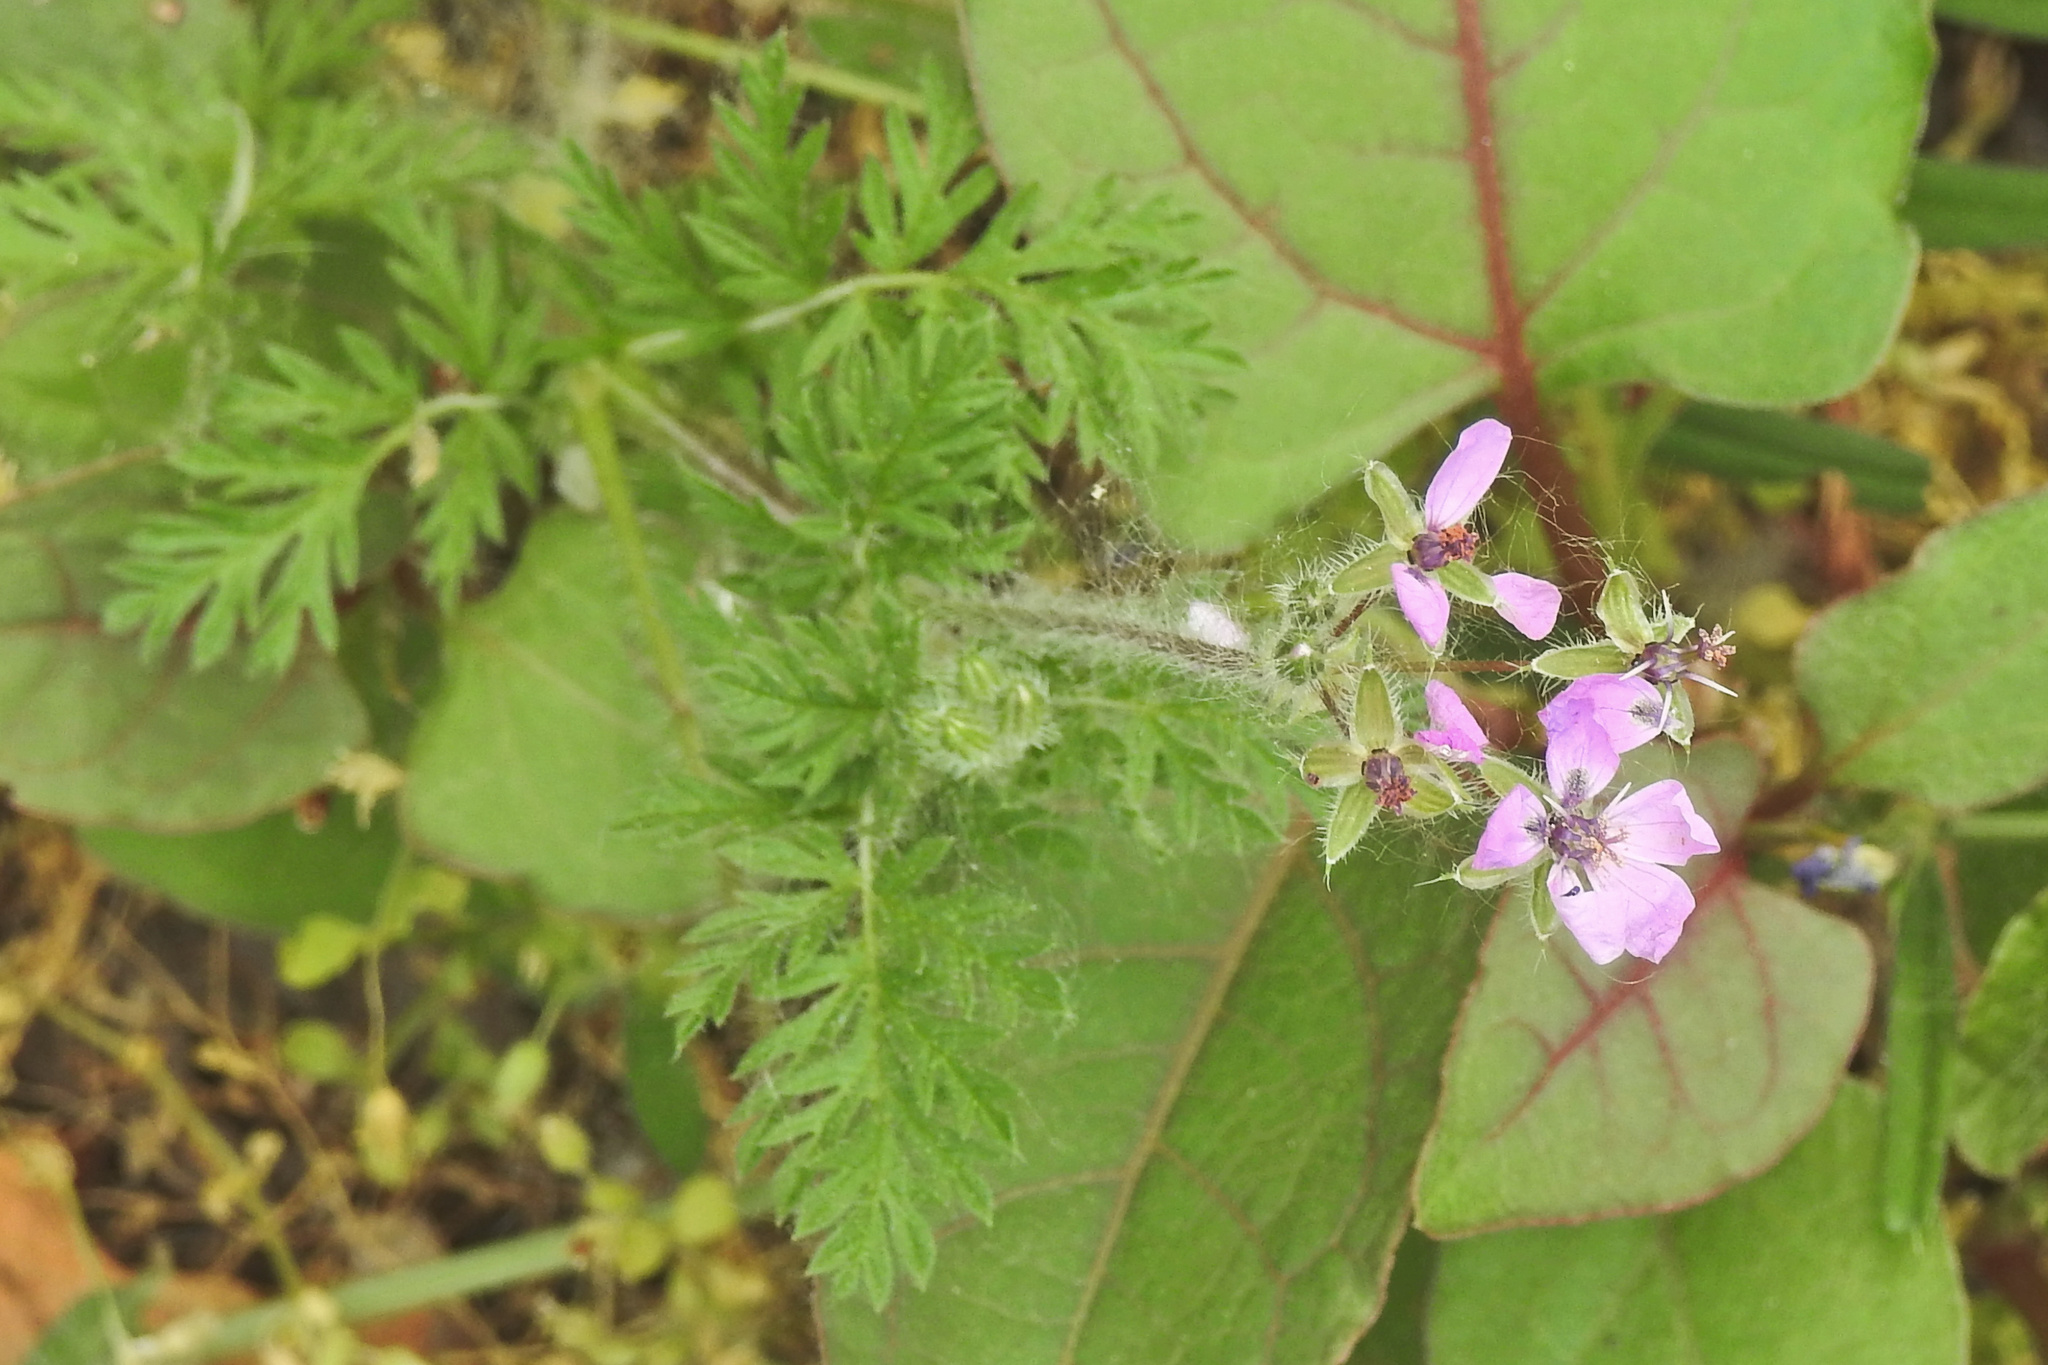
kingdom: Plantae
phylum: Tracheophyta
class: Magnoliopsida
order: Geraniales
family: Geraniaceae
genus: Erodium
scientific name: Erodium cicutarium
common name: Common stork's-bill
